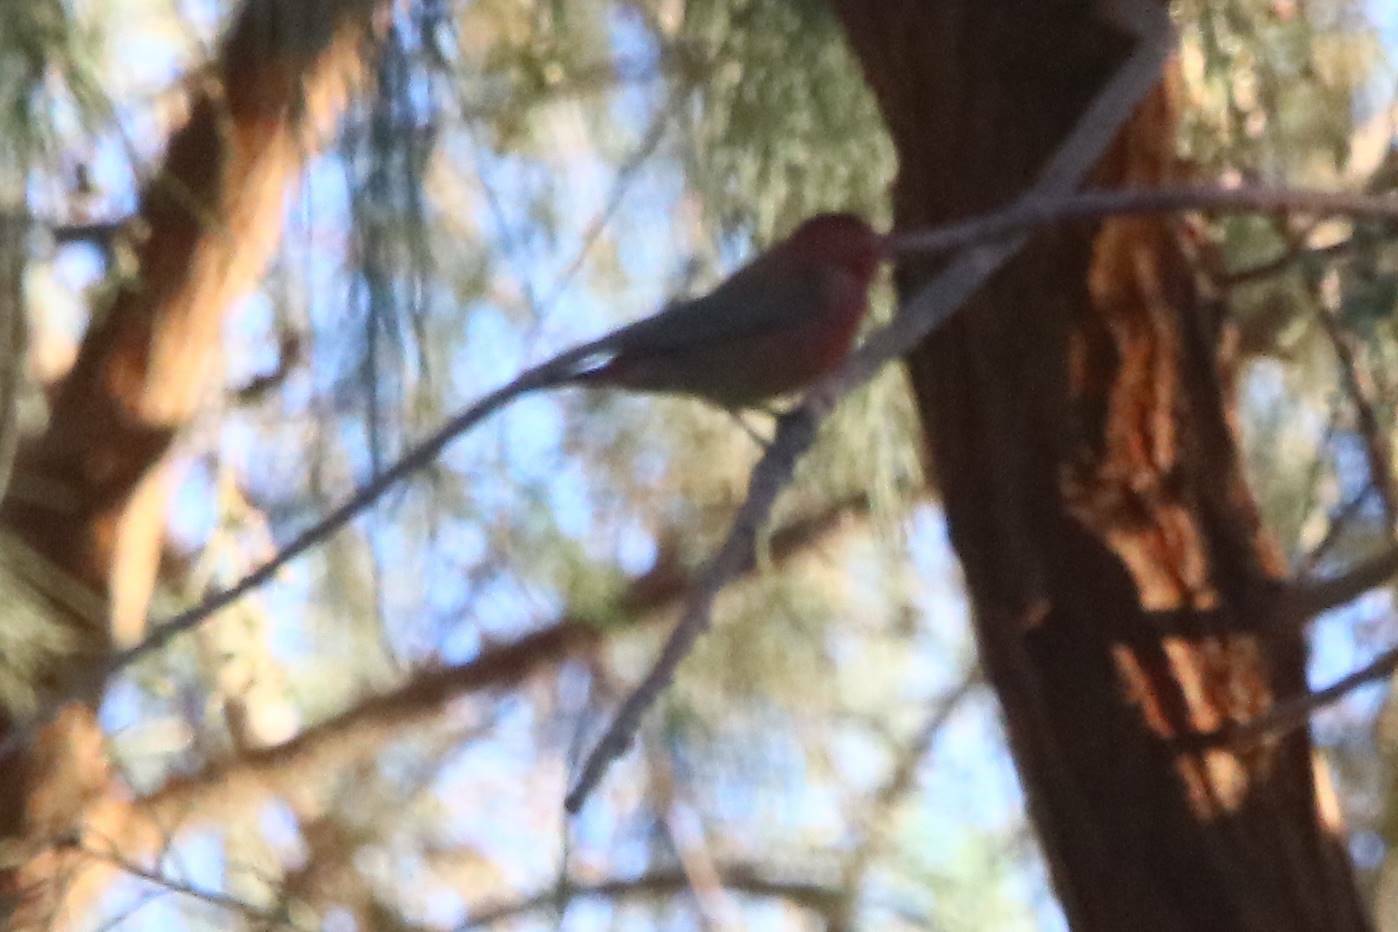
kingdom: Animalia
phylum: Chordata
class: Aves
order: Passeriformes
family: Estrildidae
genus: Lagonosticta
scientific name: Lagonosticta senegala
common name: Red-billed firefinch
